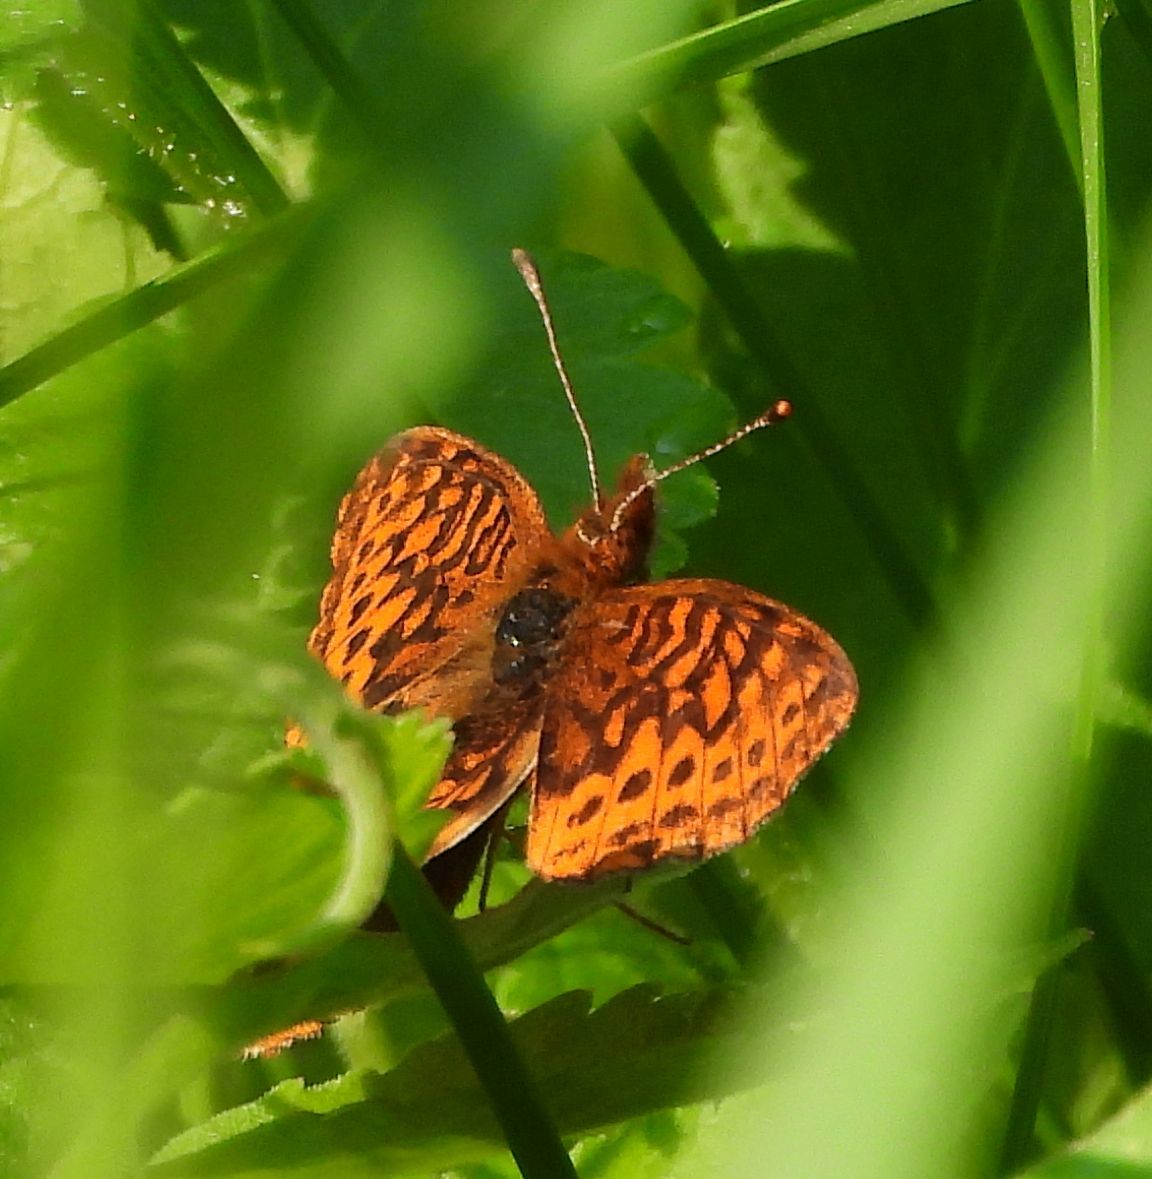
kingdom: Animalia
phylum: Arthropoda
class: Insecta
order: Lepidoptera
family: Nymphalidae
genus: Clossiana
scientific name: Clossiana toddi
